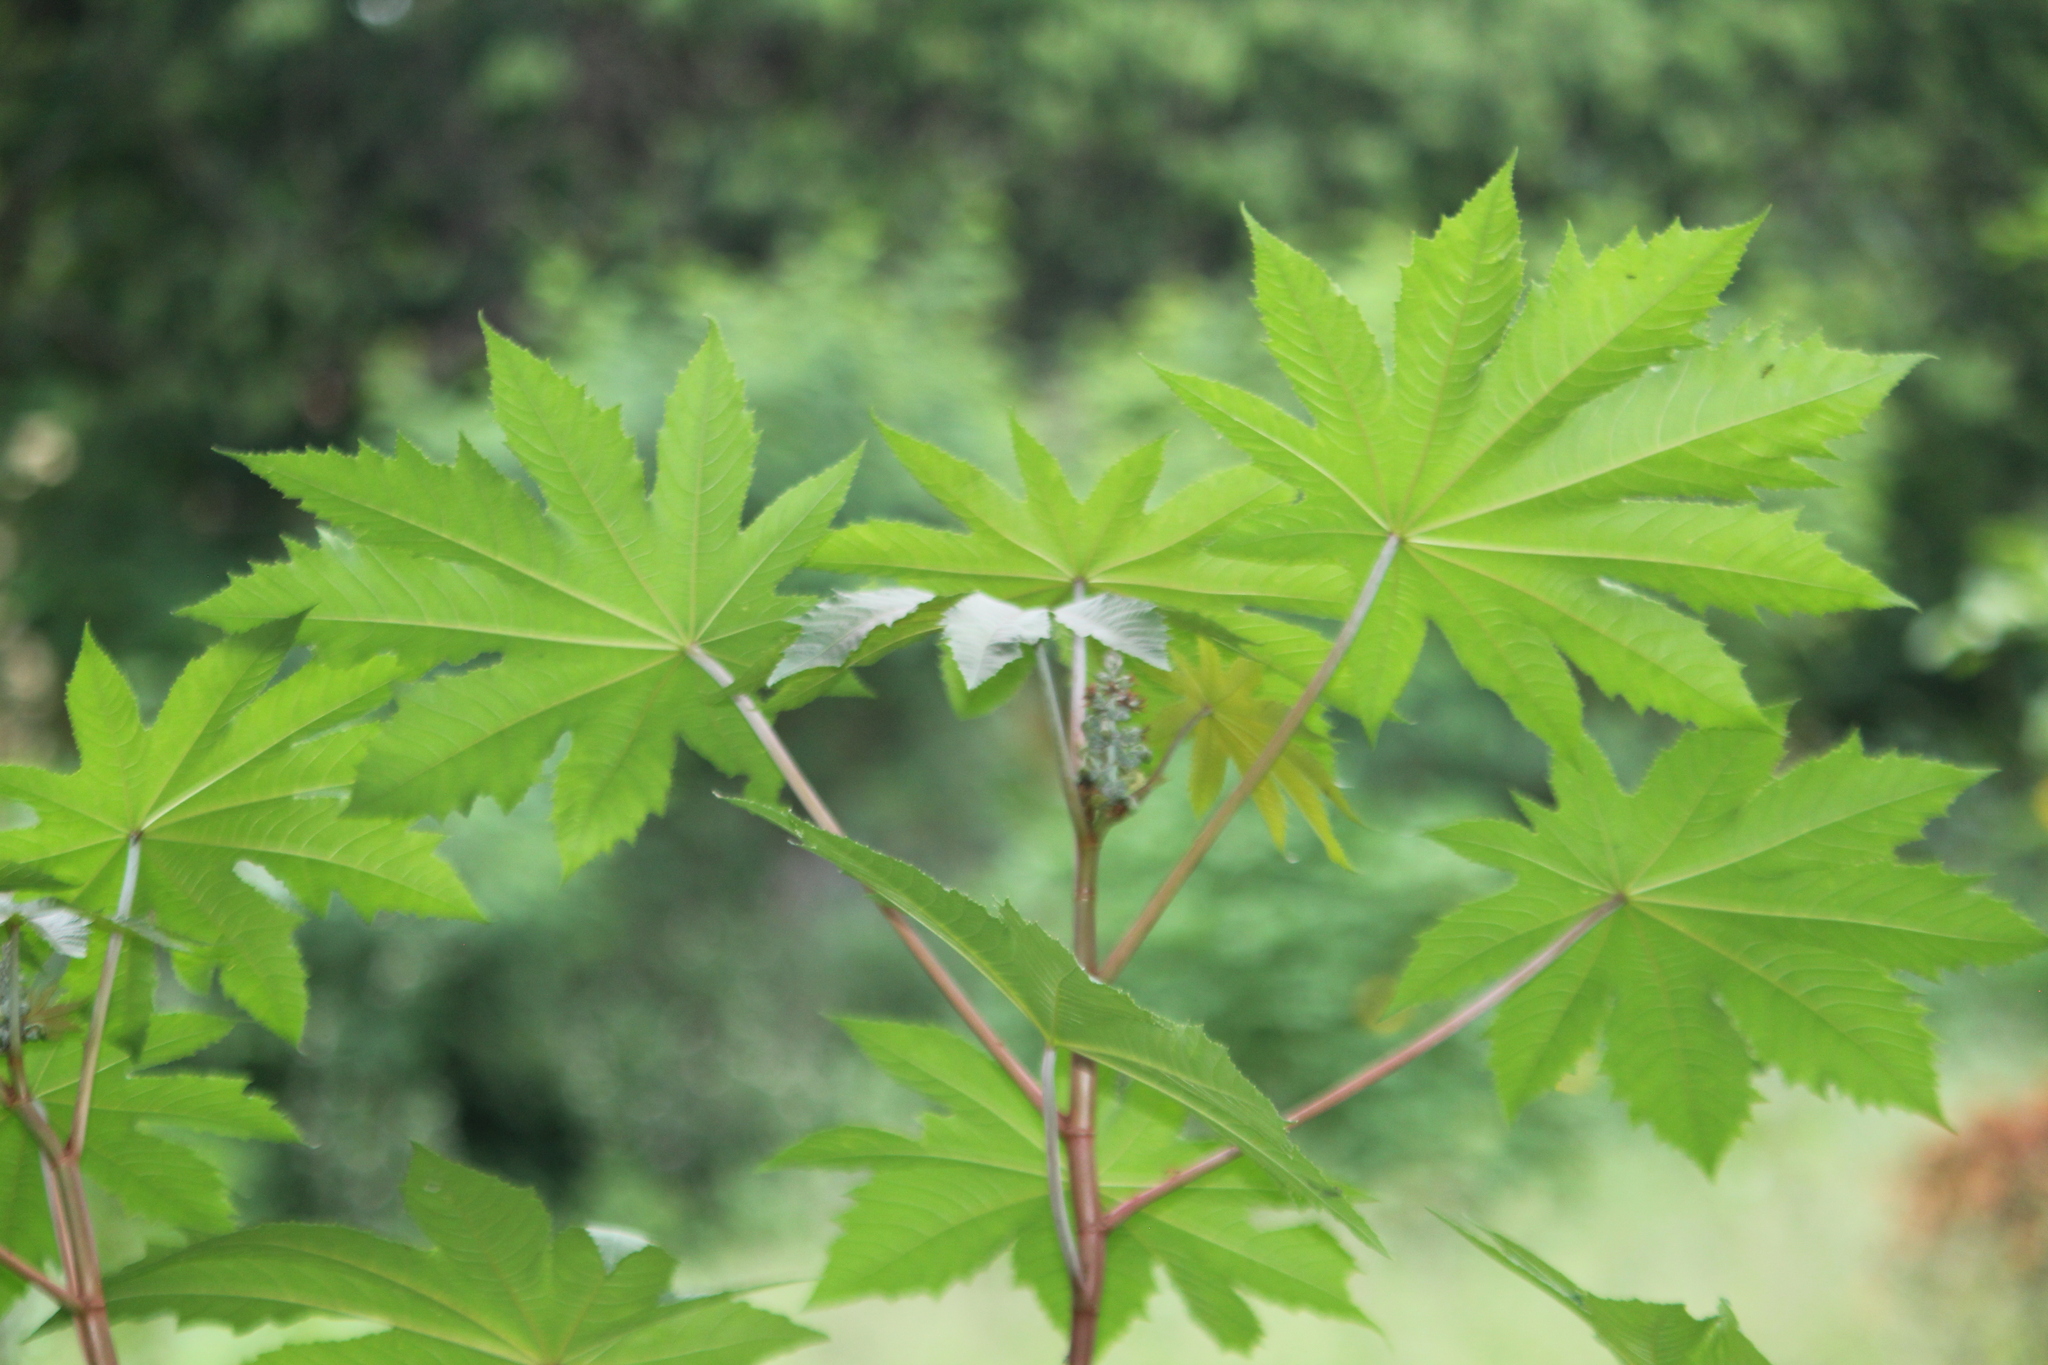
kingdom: Plantae
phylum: Tracheophyta
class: Magnoliopsida
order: Malpighiales
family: Euphorbiaceae
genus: Ricinus
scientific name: Ricinus communis
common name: Castor-oil-plant
